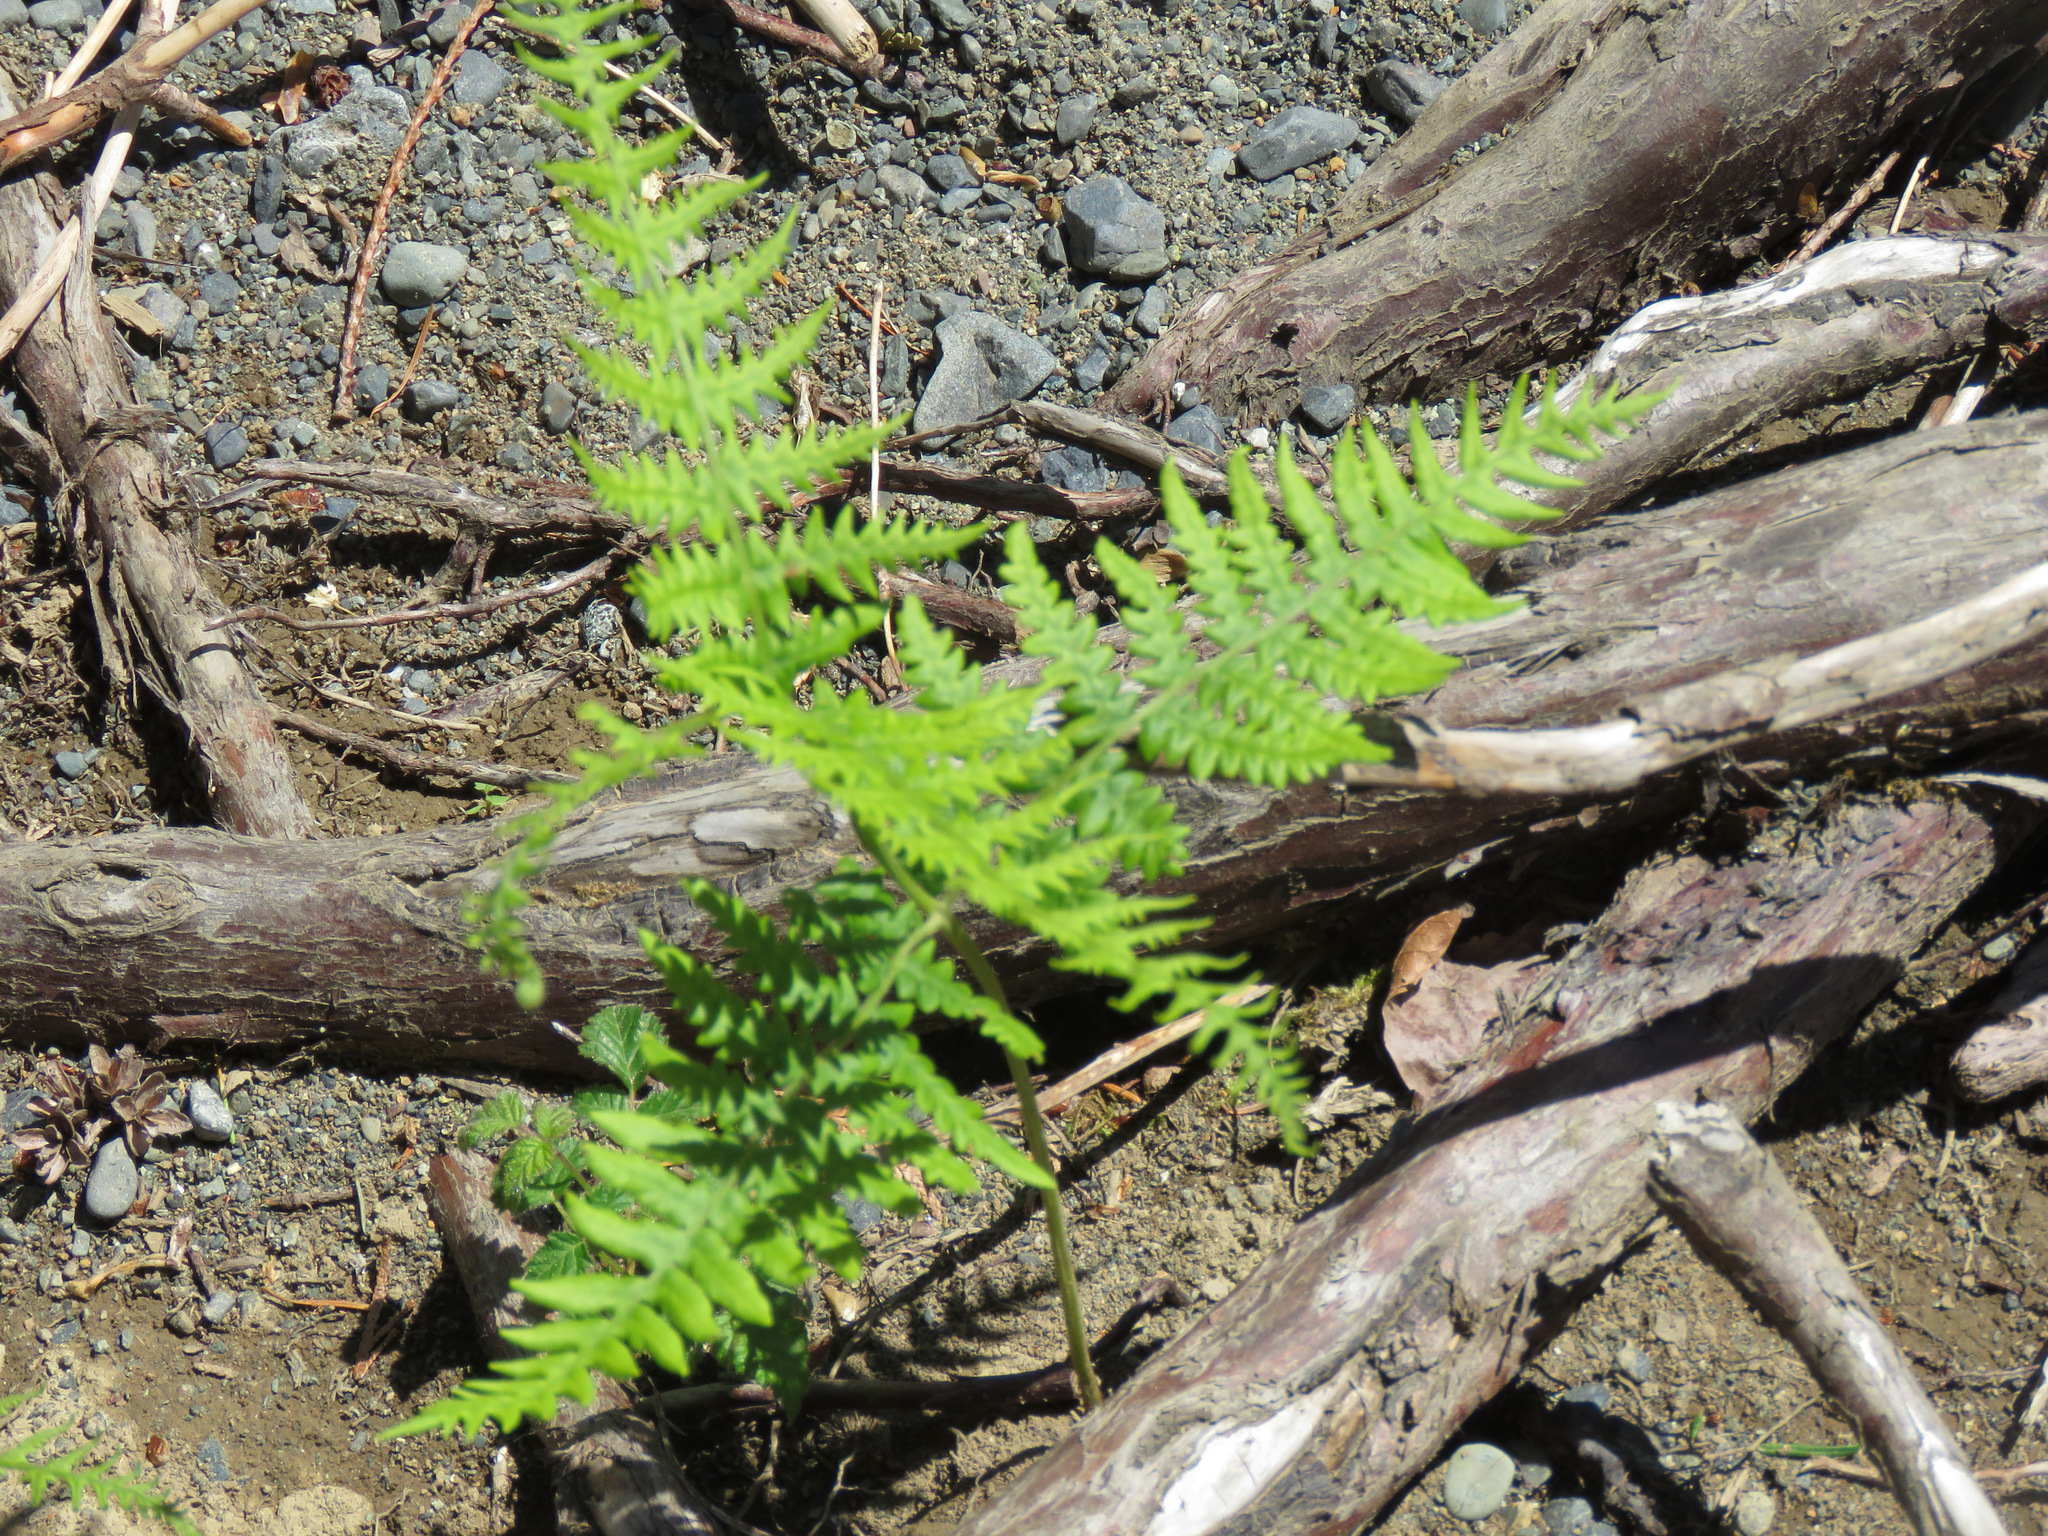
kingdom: Plantae
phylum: Tracheophyta
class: Polypodiopsida
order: Polypodiales
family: Dennstaedtiaceae
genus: Pteridium
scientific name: Pteridium aquilinum
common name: Bracken
